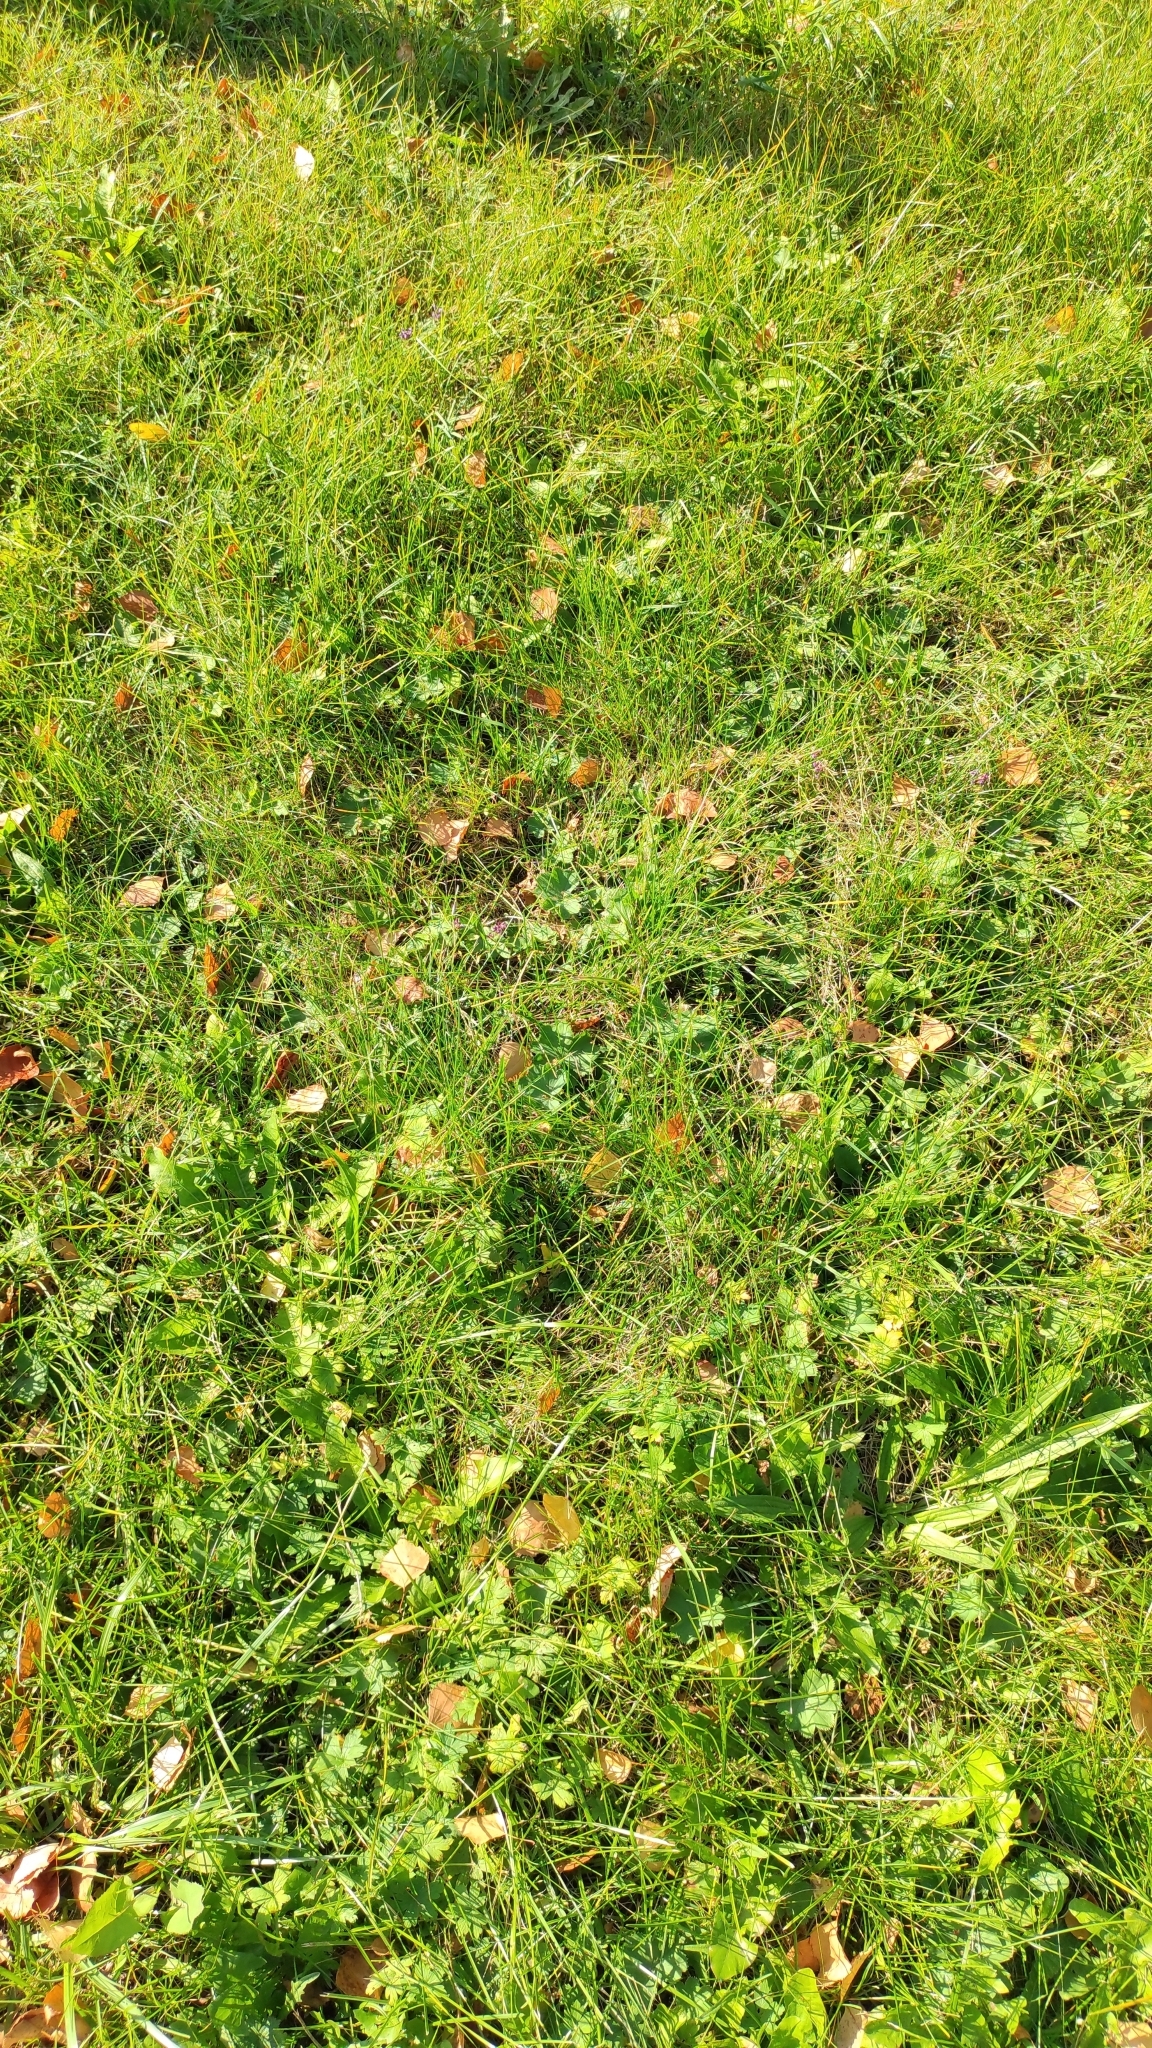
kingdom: Plantae
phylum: Tracheophyta
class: Magnoliopsida
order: Lamiales
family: Lamiaceae
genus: Prunella
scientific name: Prunella vulgaris
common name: Heal-all
